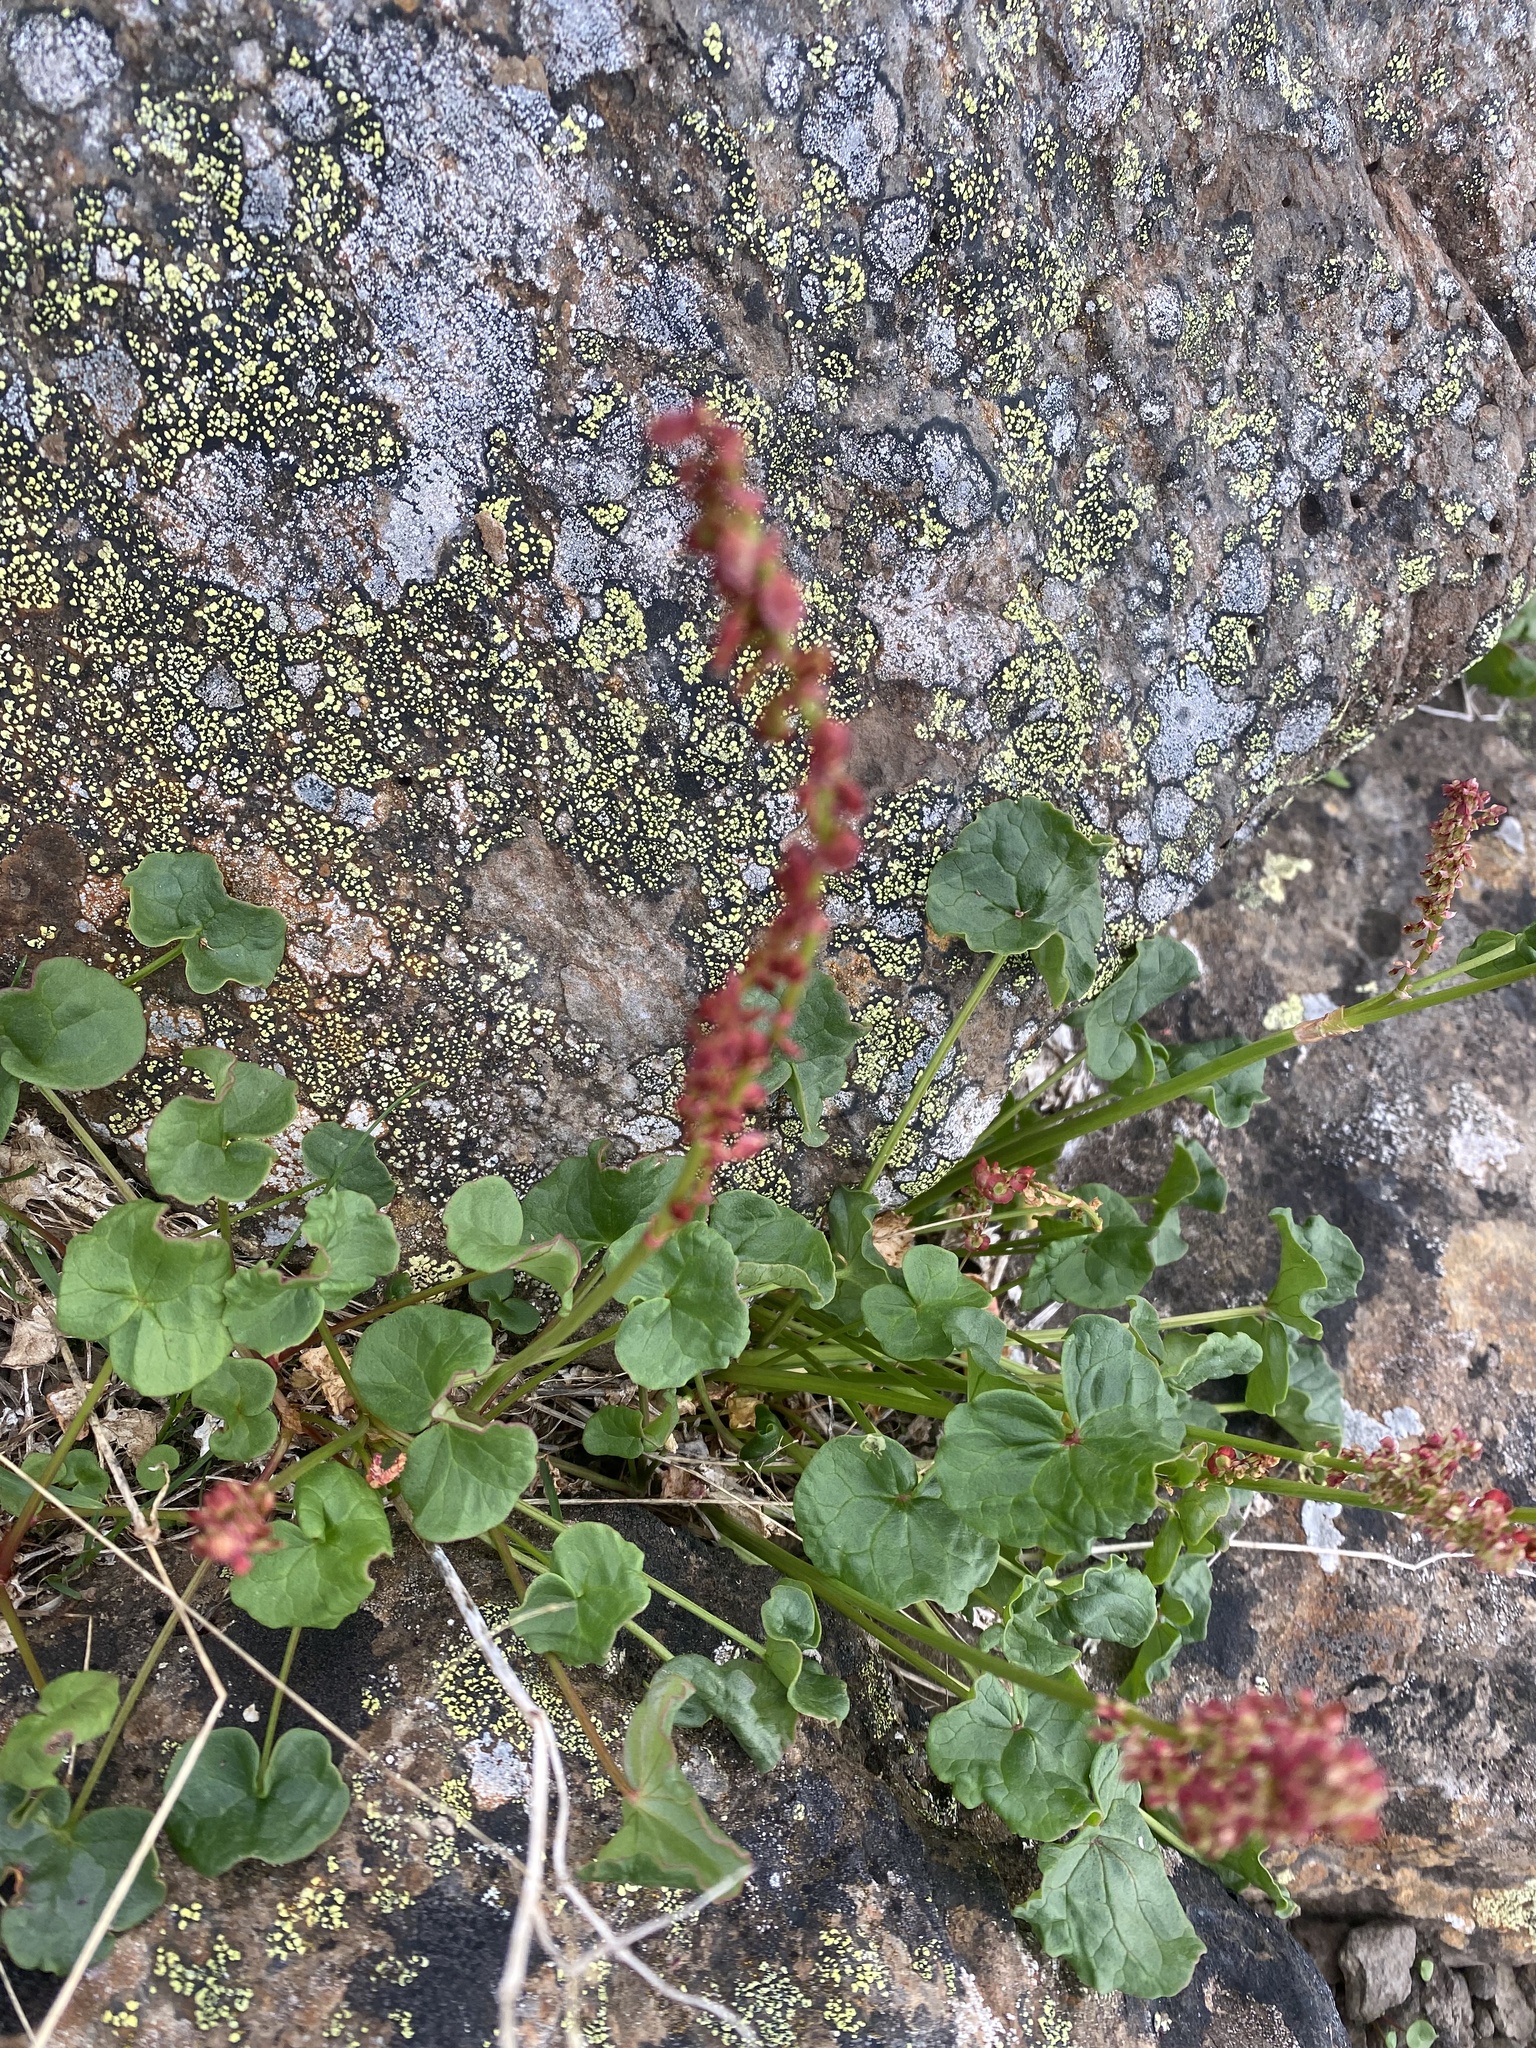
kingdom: Plantae
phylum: Tracheophyta
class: Magnoliopsida
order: Caryophyllales
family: Polygonaceae
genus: Oxyria
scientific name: Oxyria digyna
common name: Alpine mountain-sorrel
